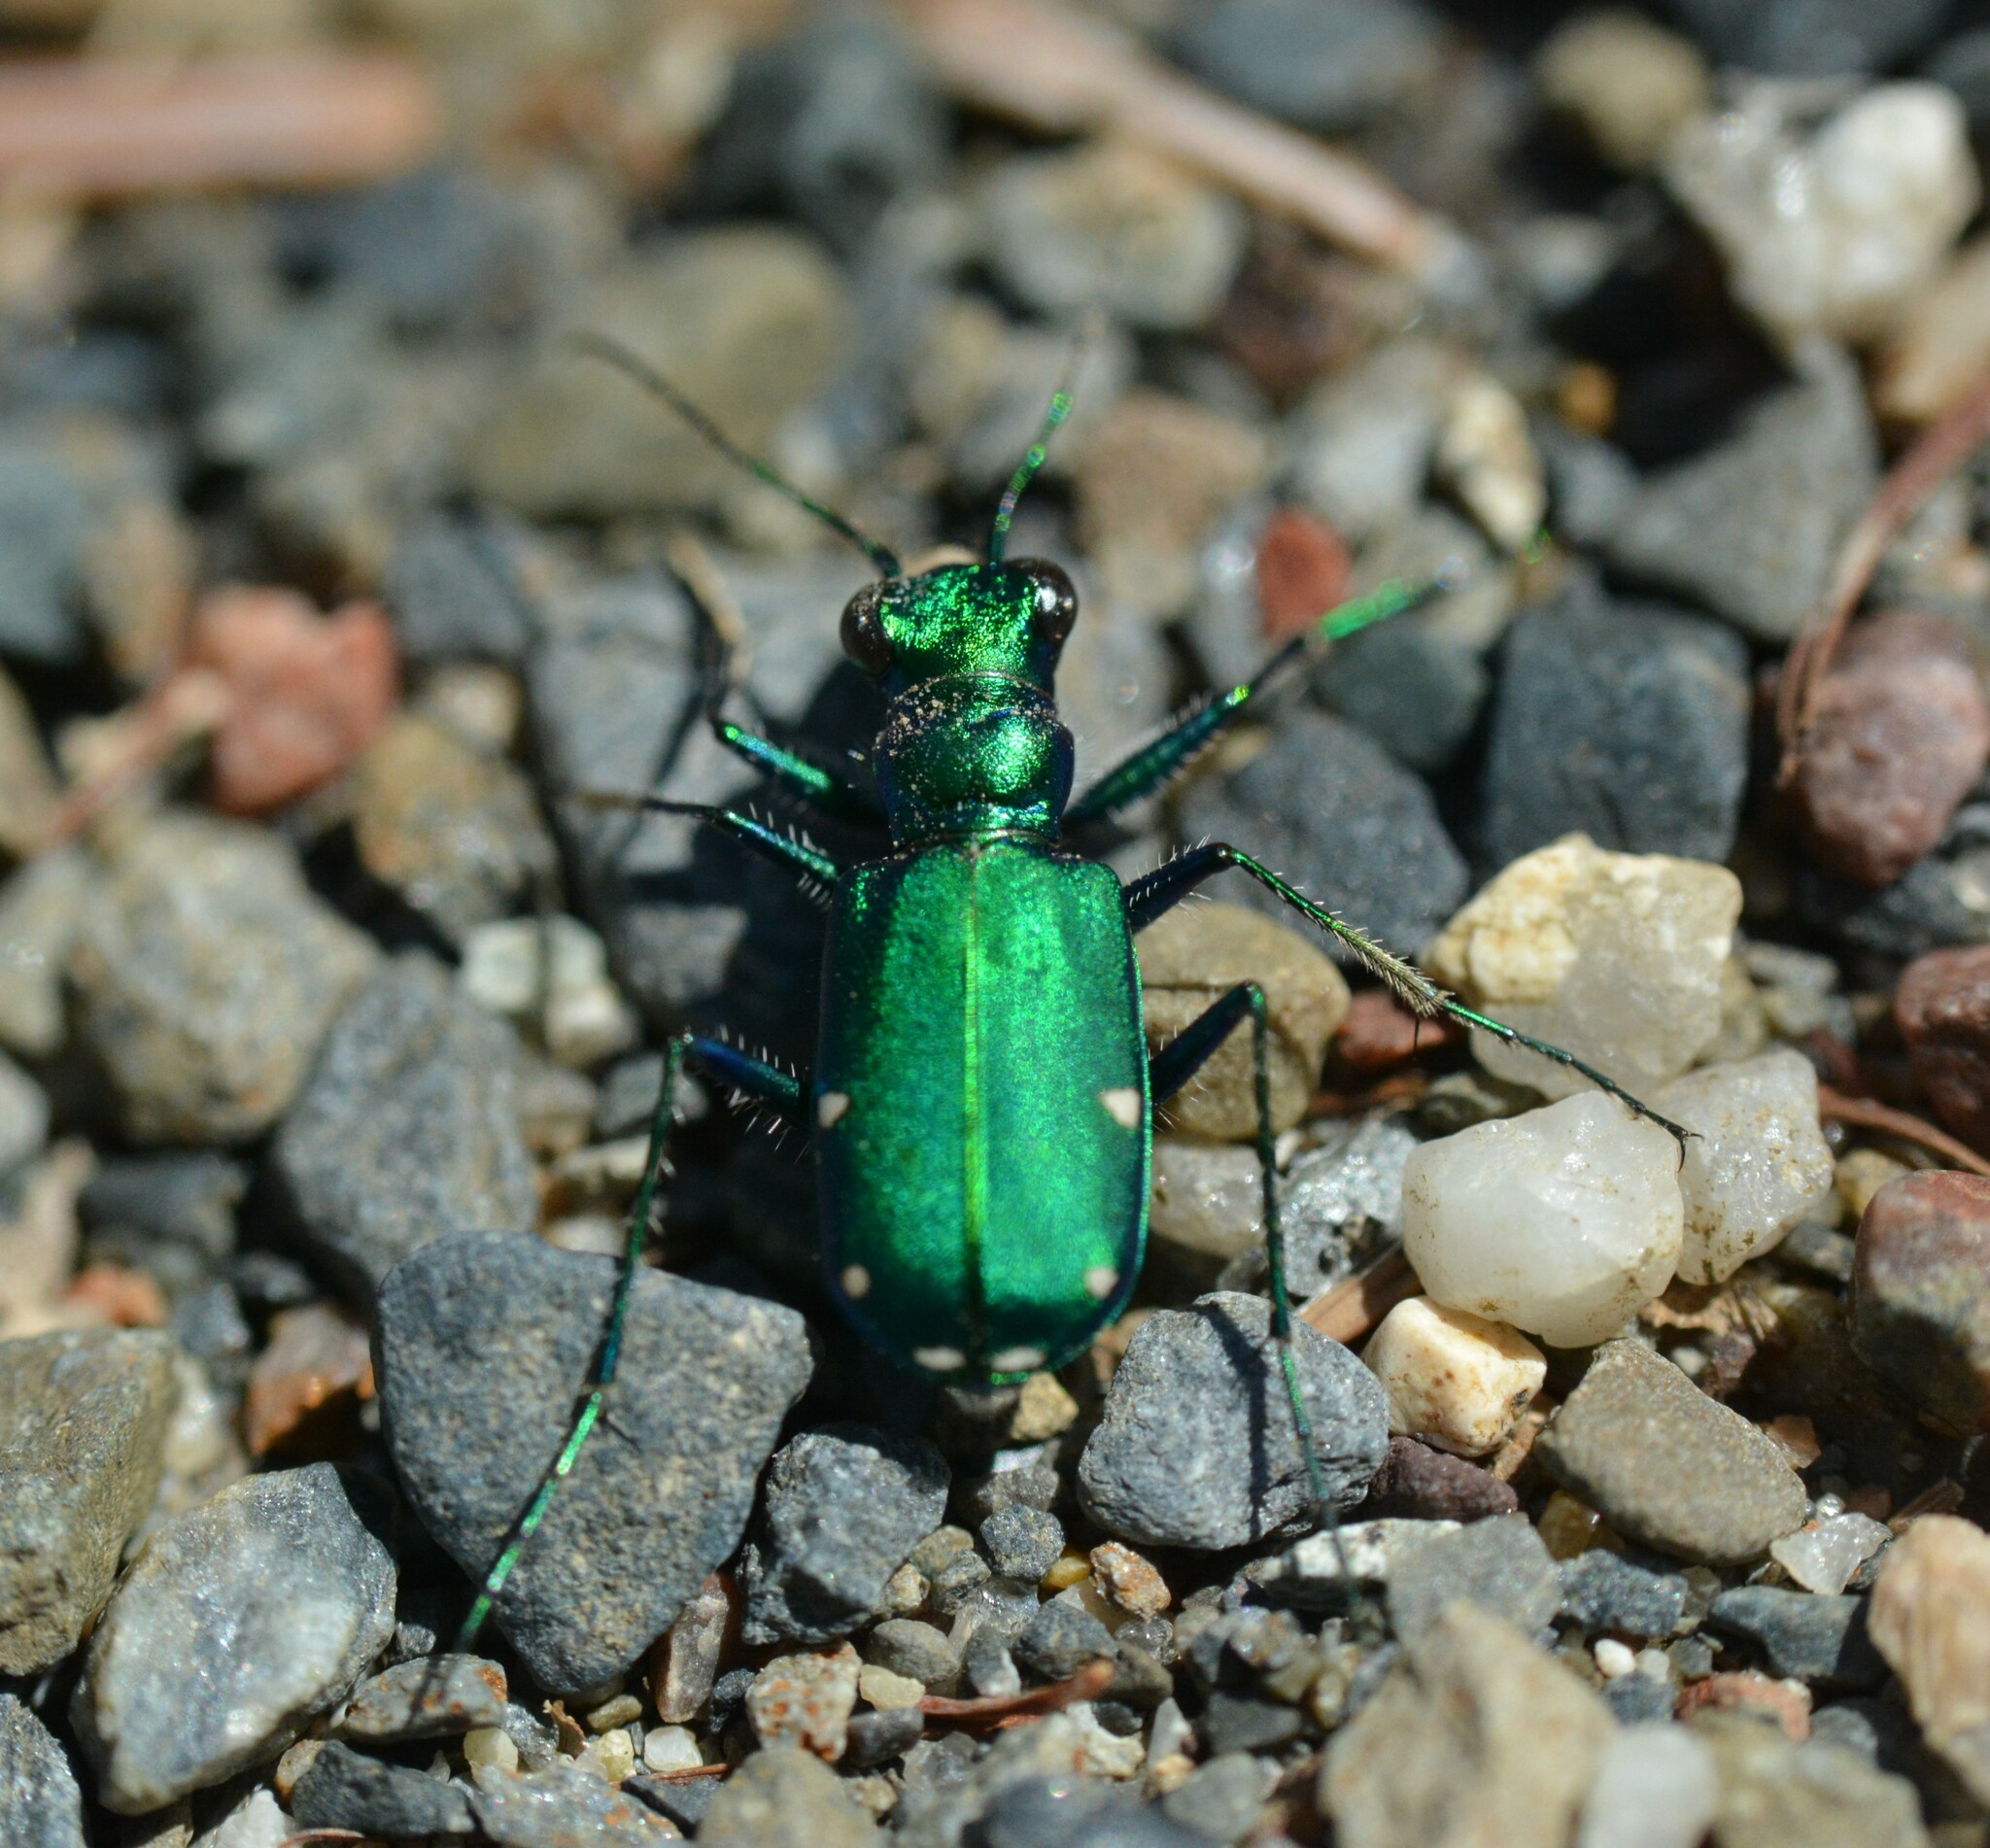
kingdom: Animalia
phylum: Arthropoda
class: Insecta
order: Coleoptera
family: Carabidae
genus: Cicindela
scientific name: Cicindela sexguttata
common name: Six-spotted tiger beetle
